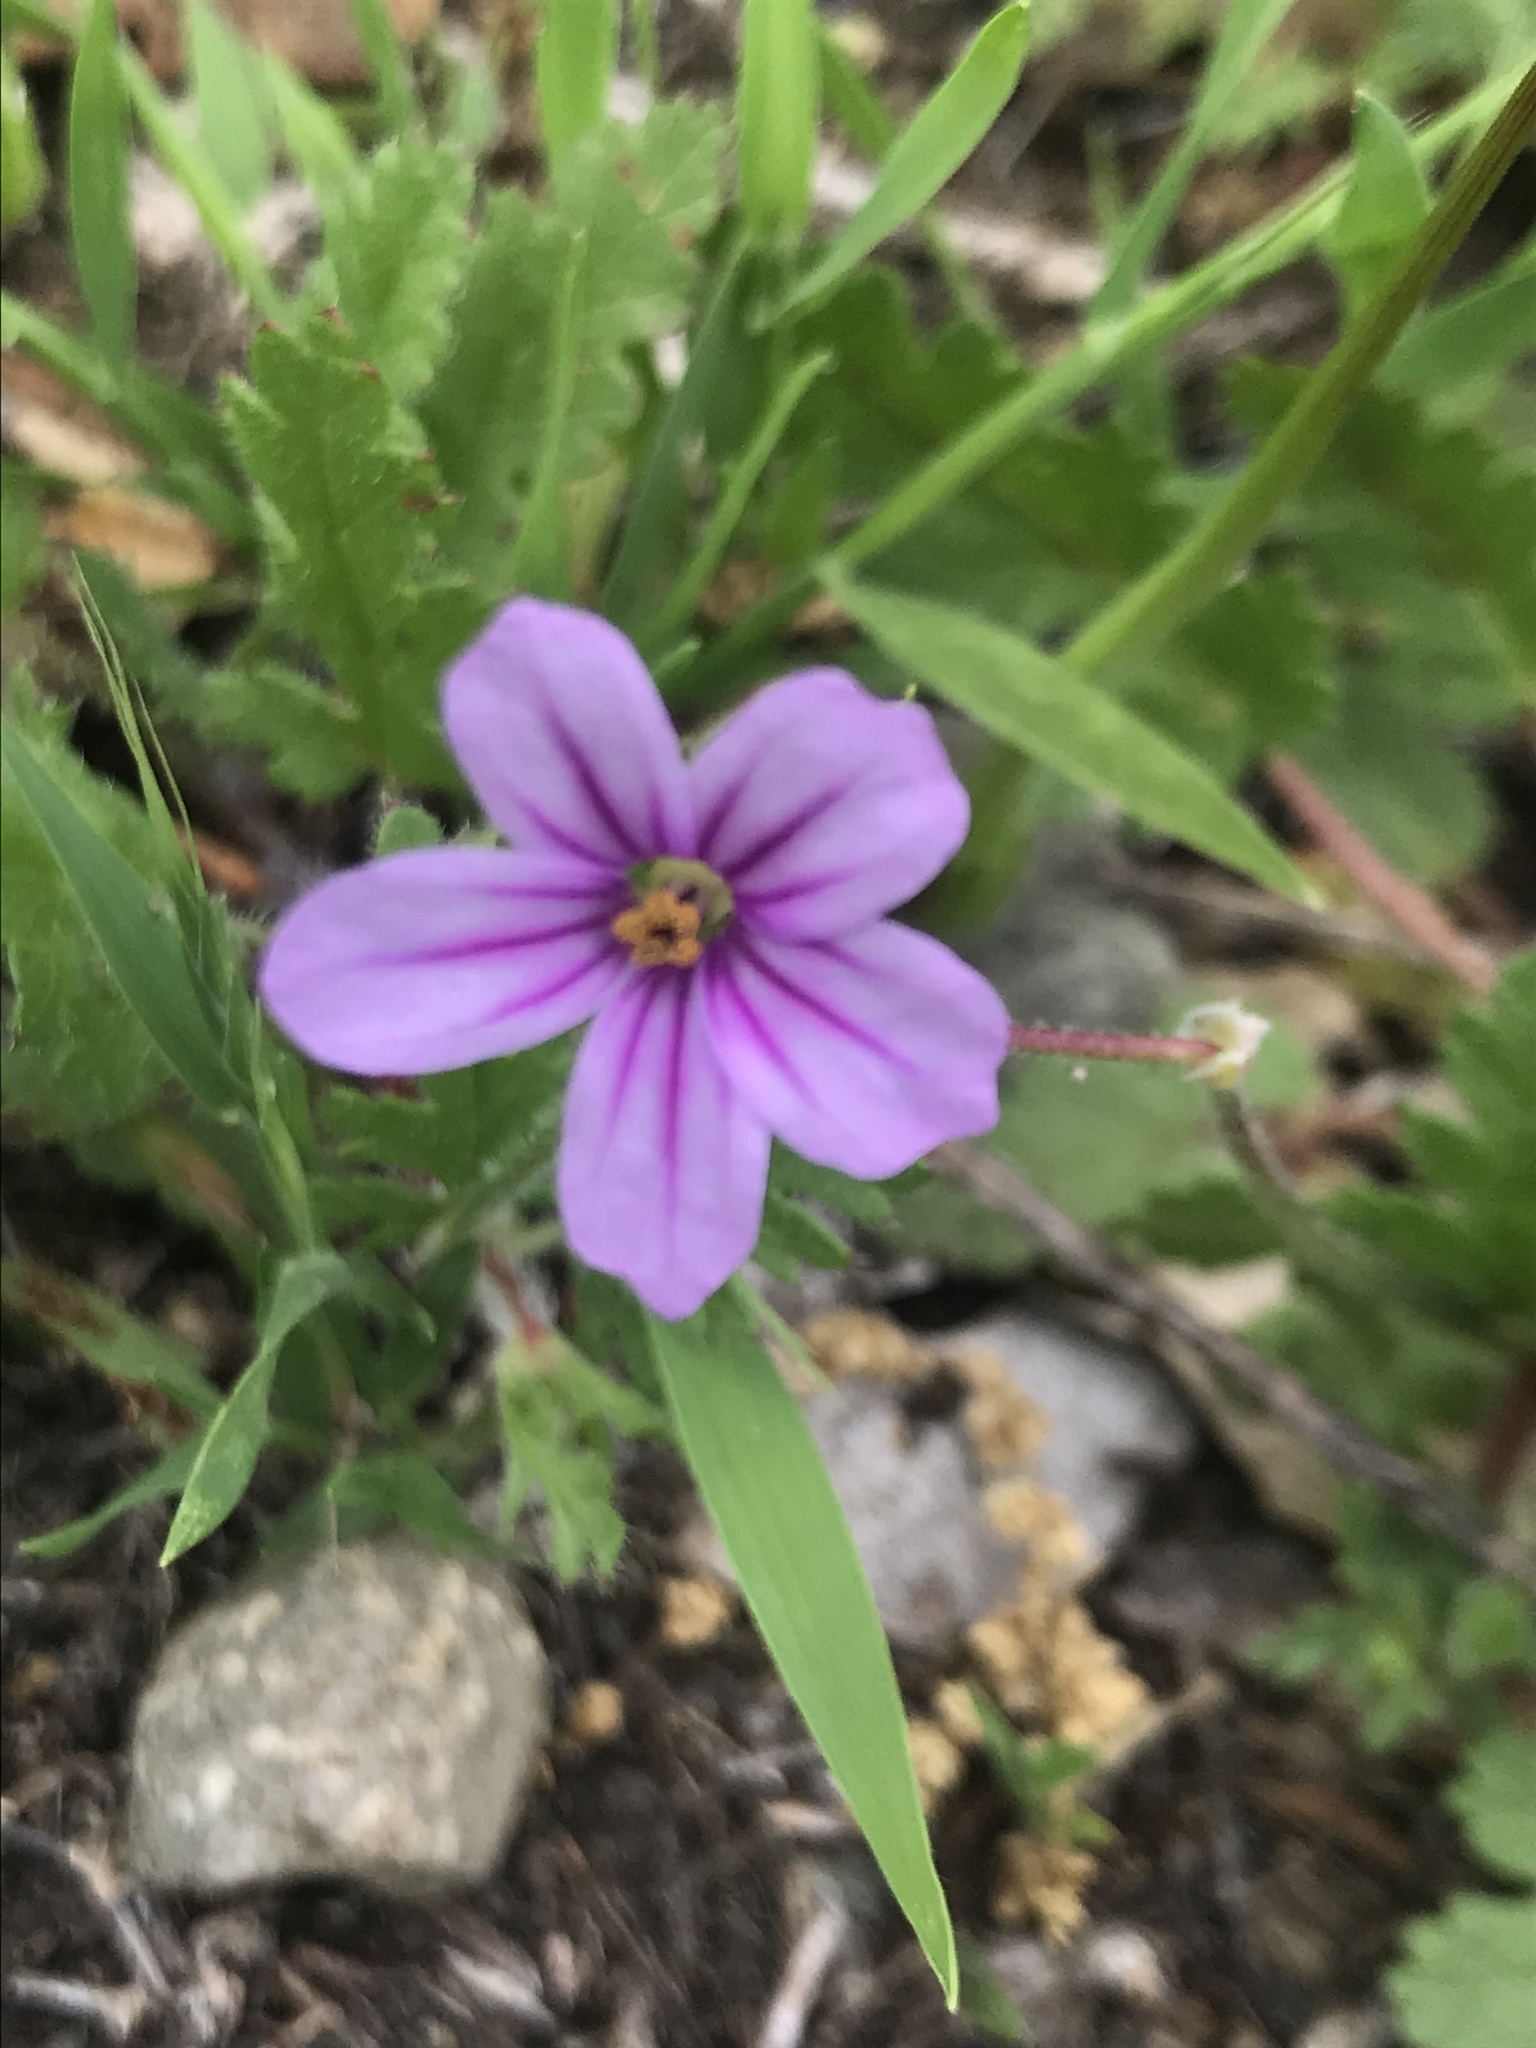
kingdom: Plantae
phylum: Tracheophyta
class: Magnoliopsida
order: Geraniales
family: Geraniaceae
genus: Erodium
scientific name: Erodium botrys
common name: Mediterranean stork's-bill
